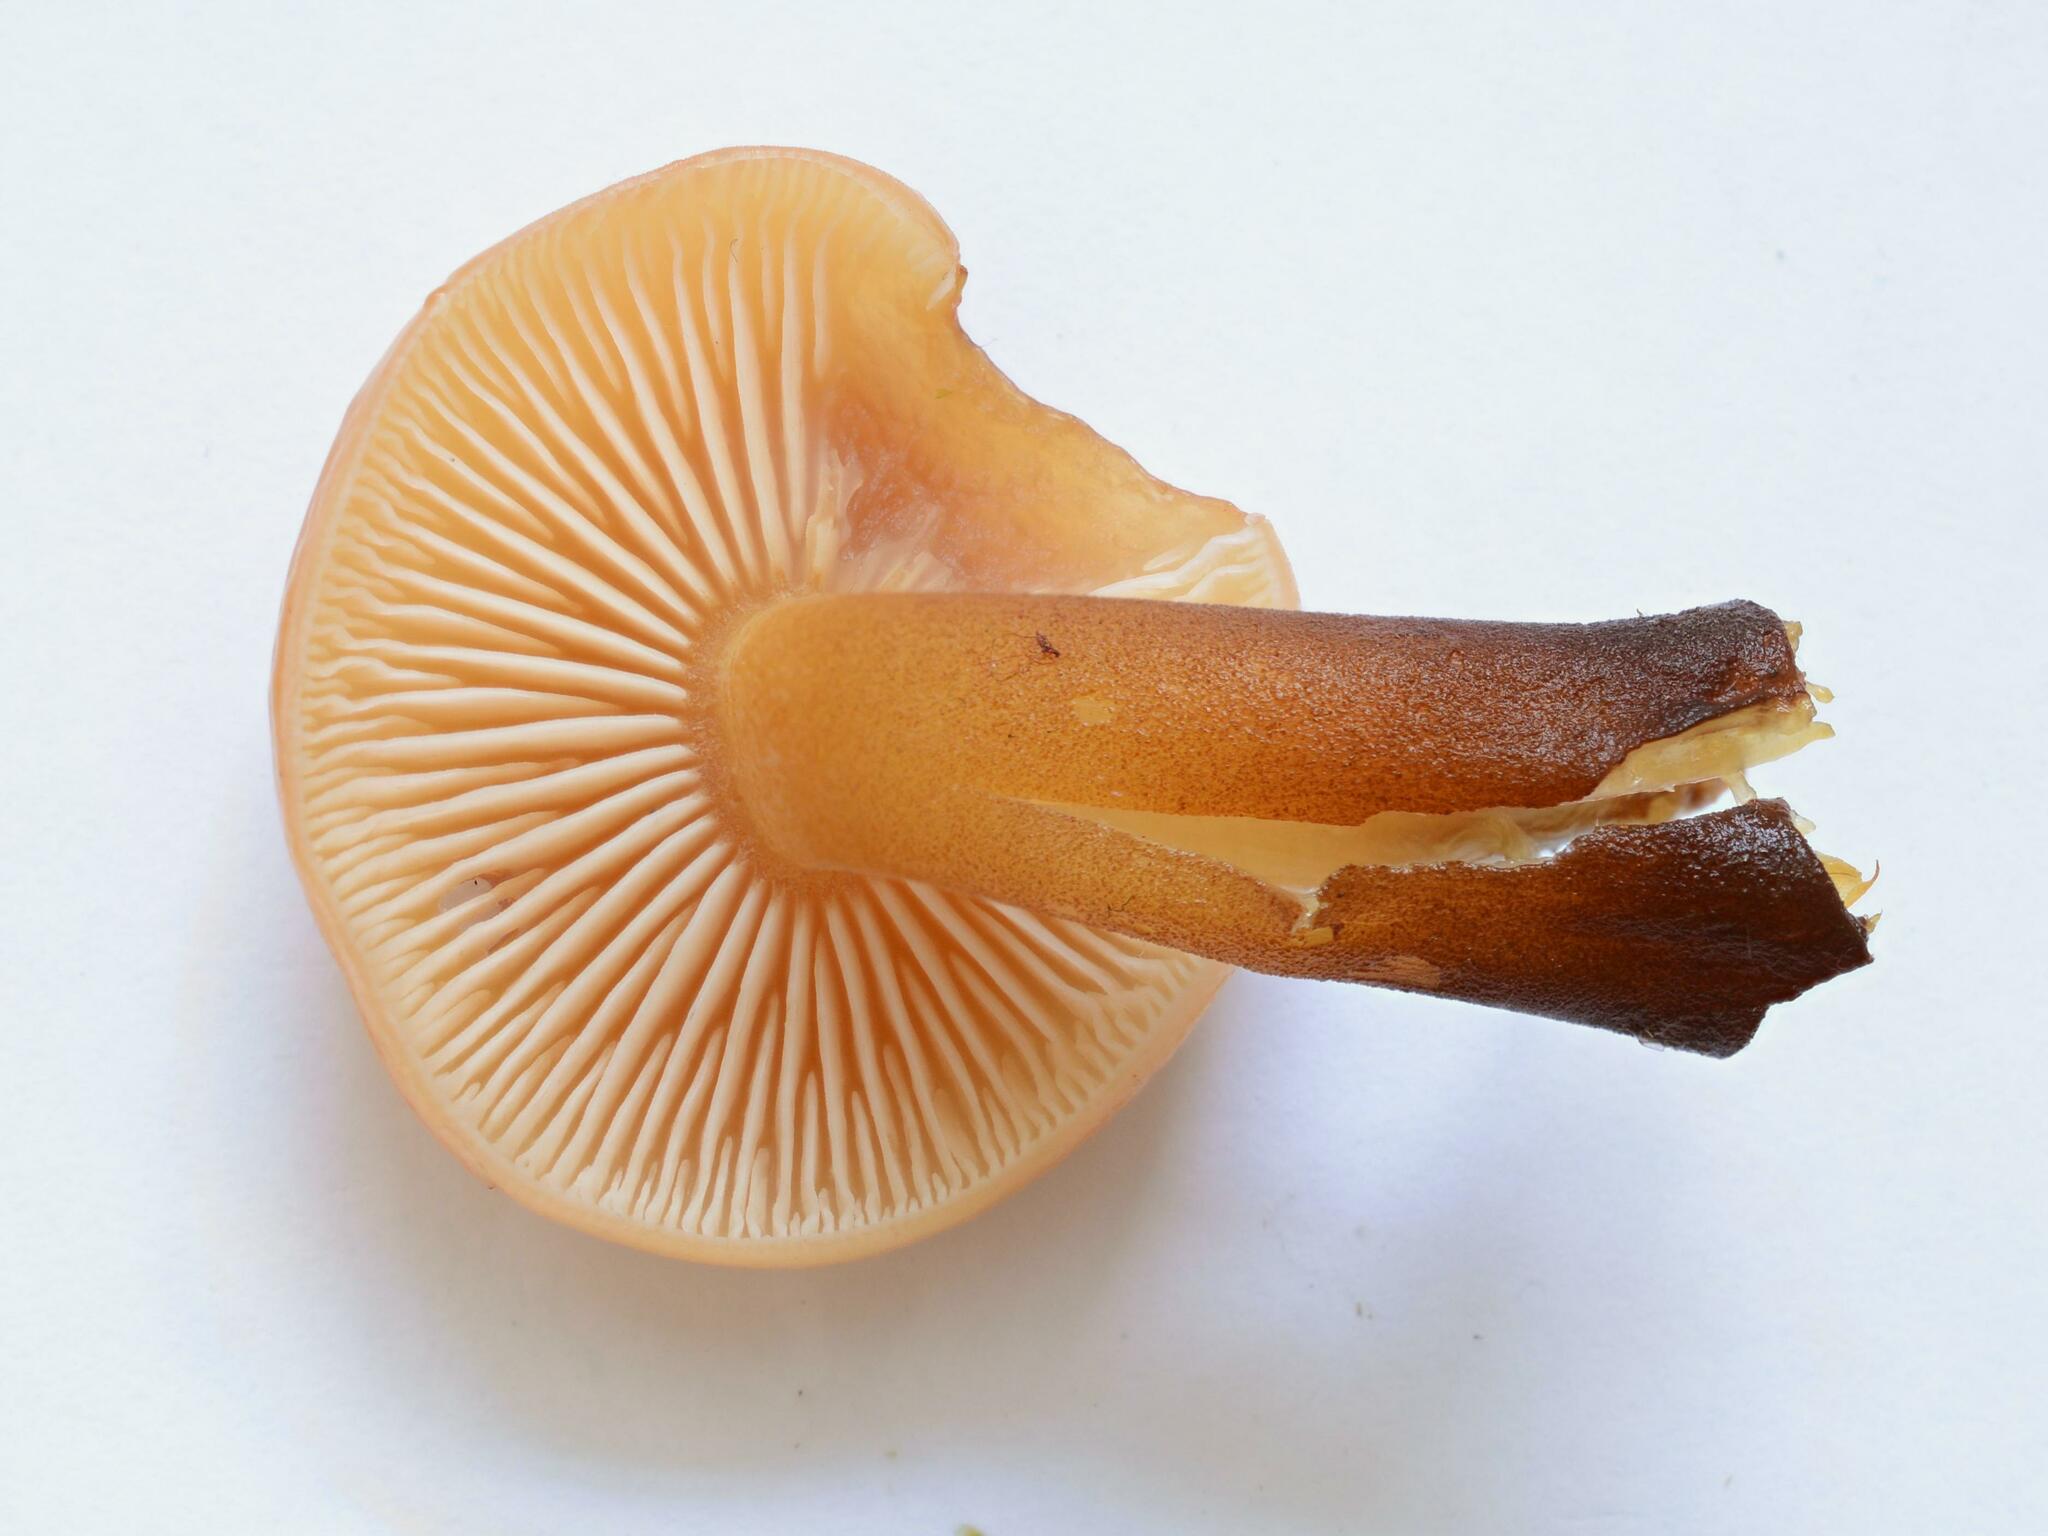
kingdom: Fungi
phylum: Basidiomycota
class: Agaricomycetes
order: Agaricales
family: Physalacriaceae
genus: Flammulina
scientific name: Flammulina
